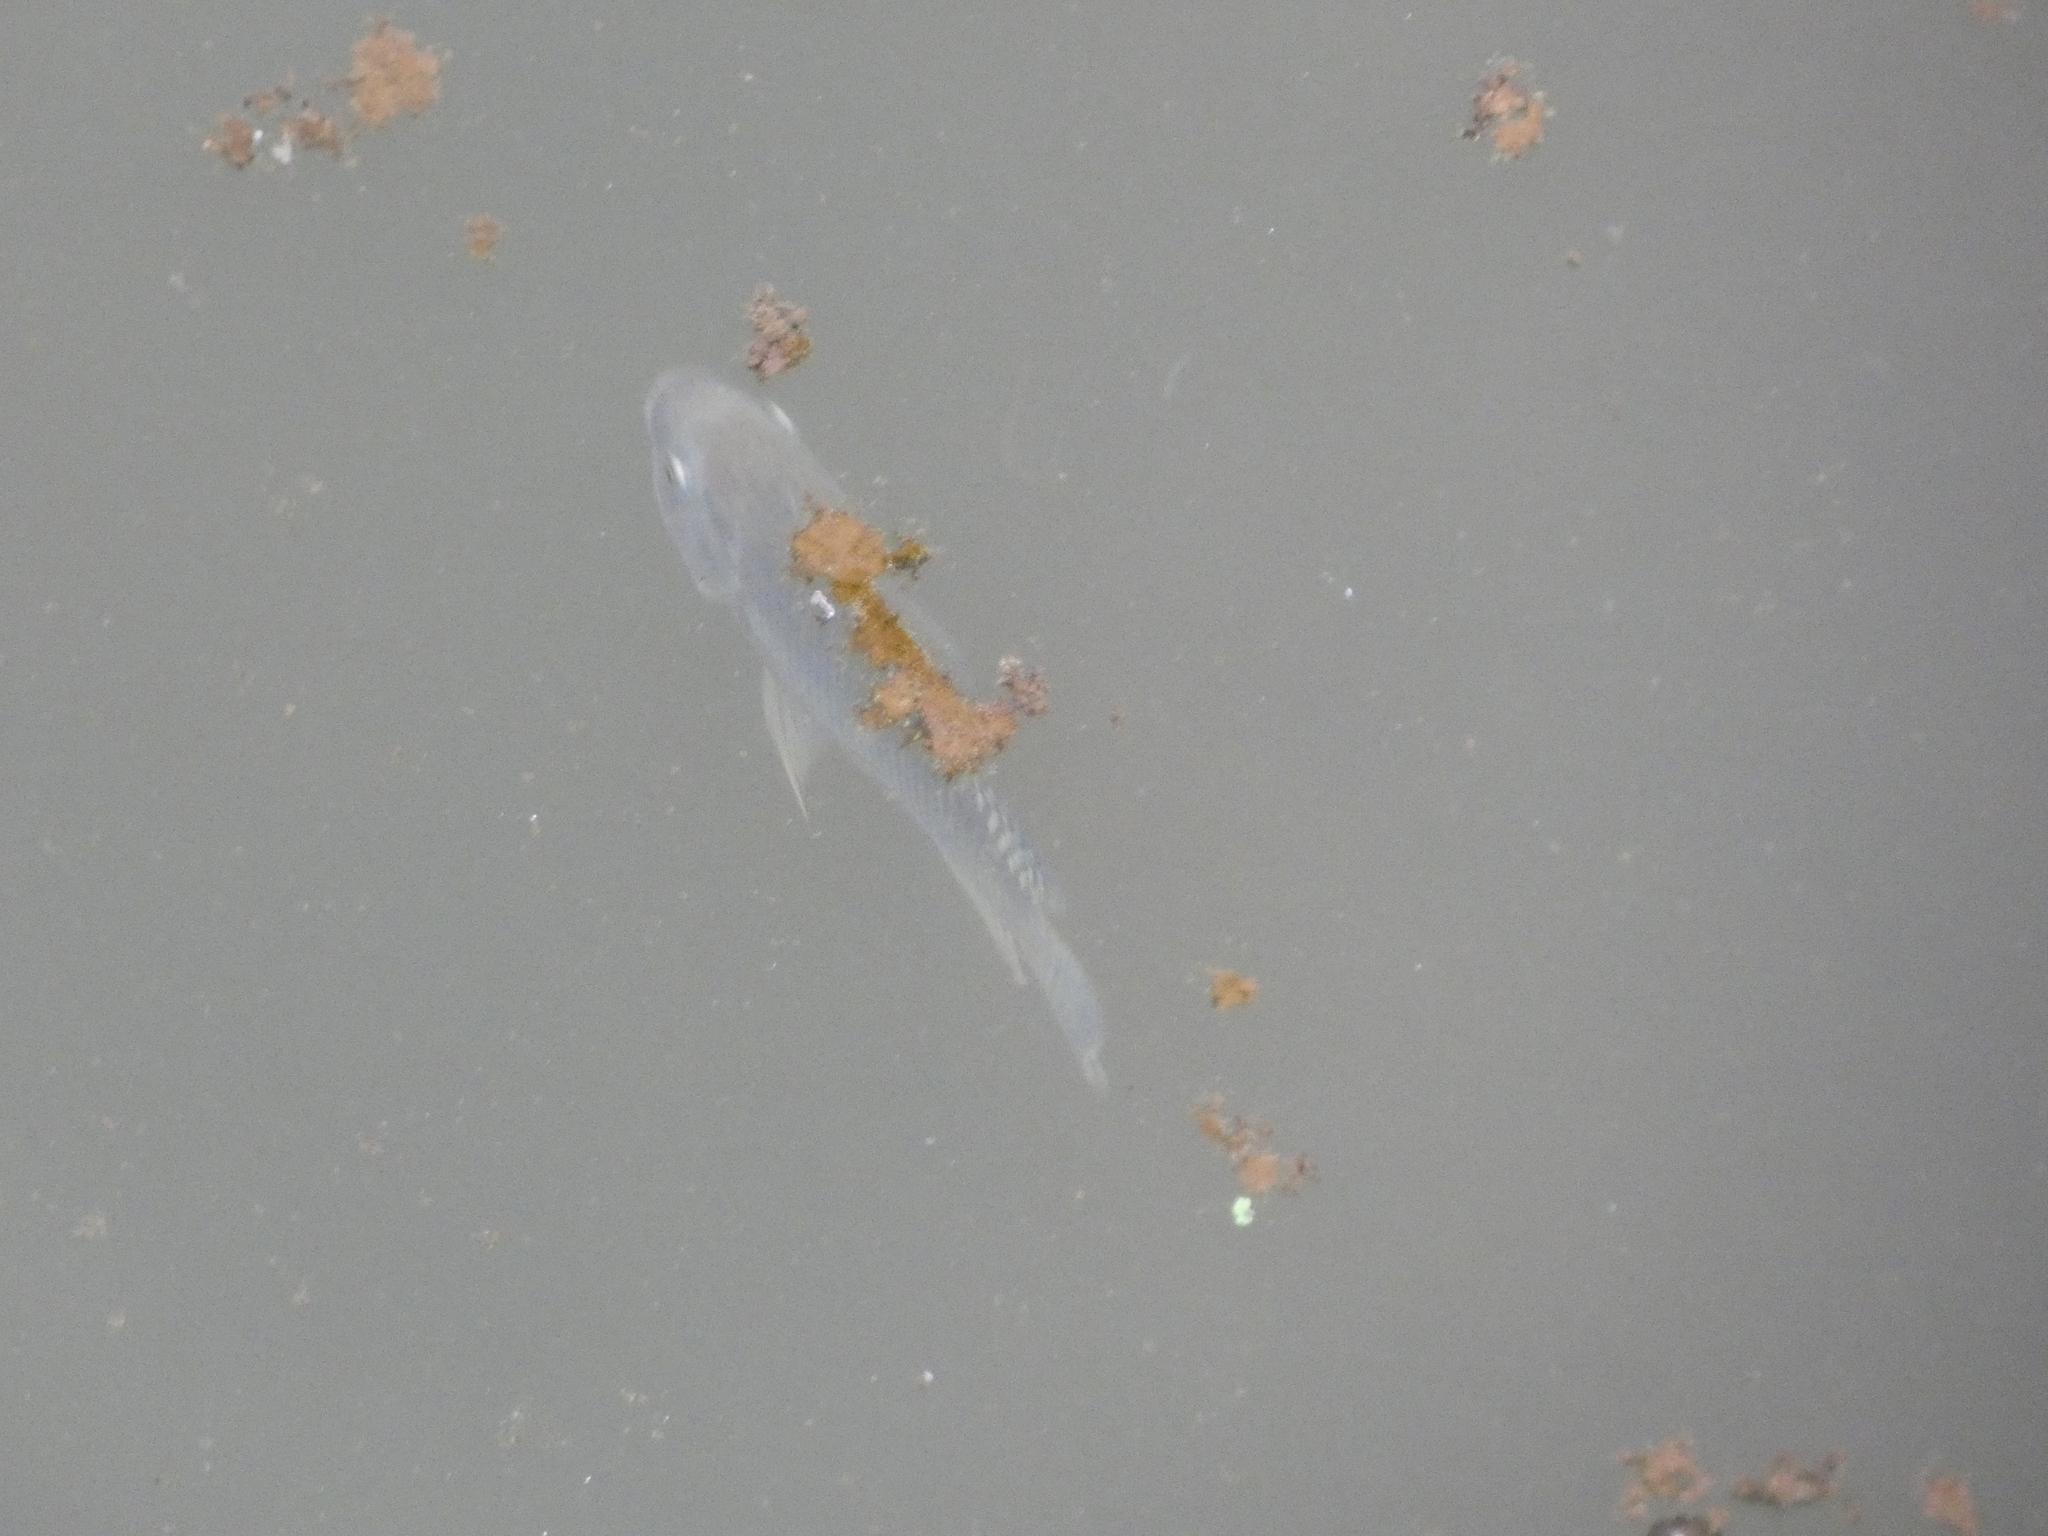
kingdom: Animalia
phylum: Chordata
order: Perciformes
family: Cichlidae
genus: Oreochromis
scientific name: Oreochromis niloticus
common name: Nile tilapia
